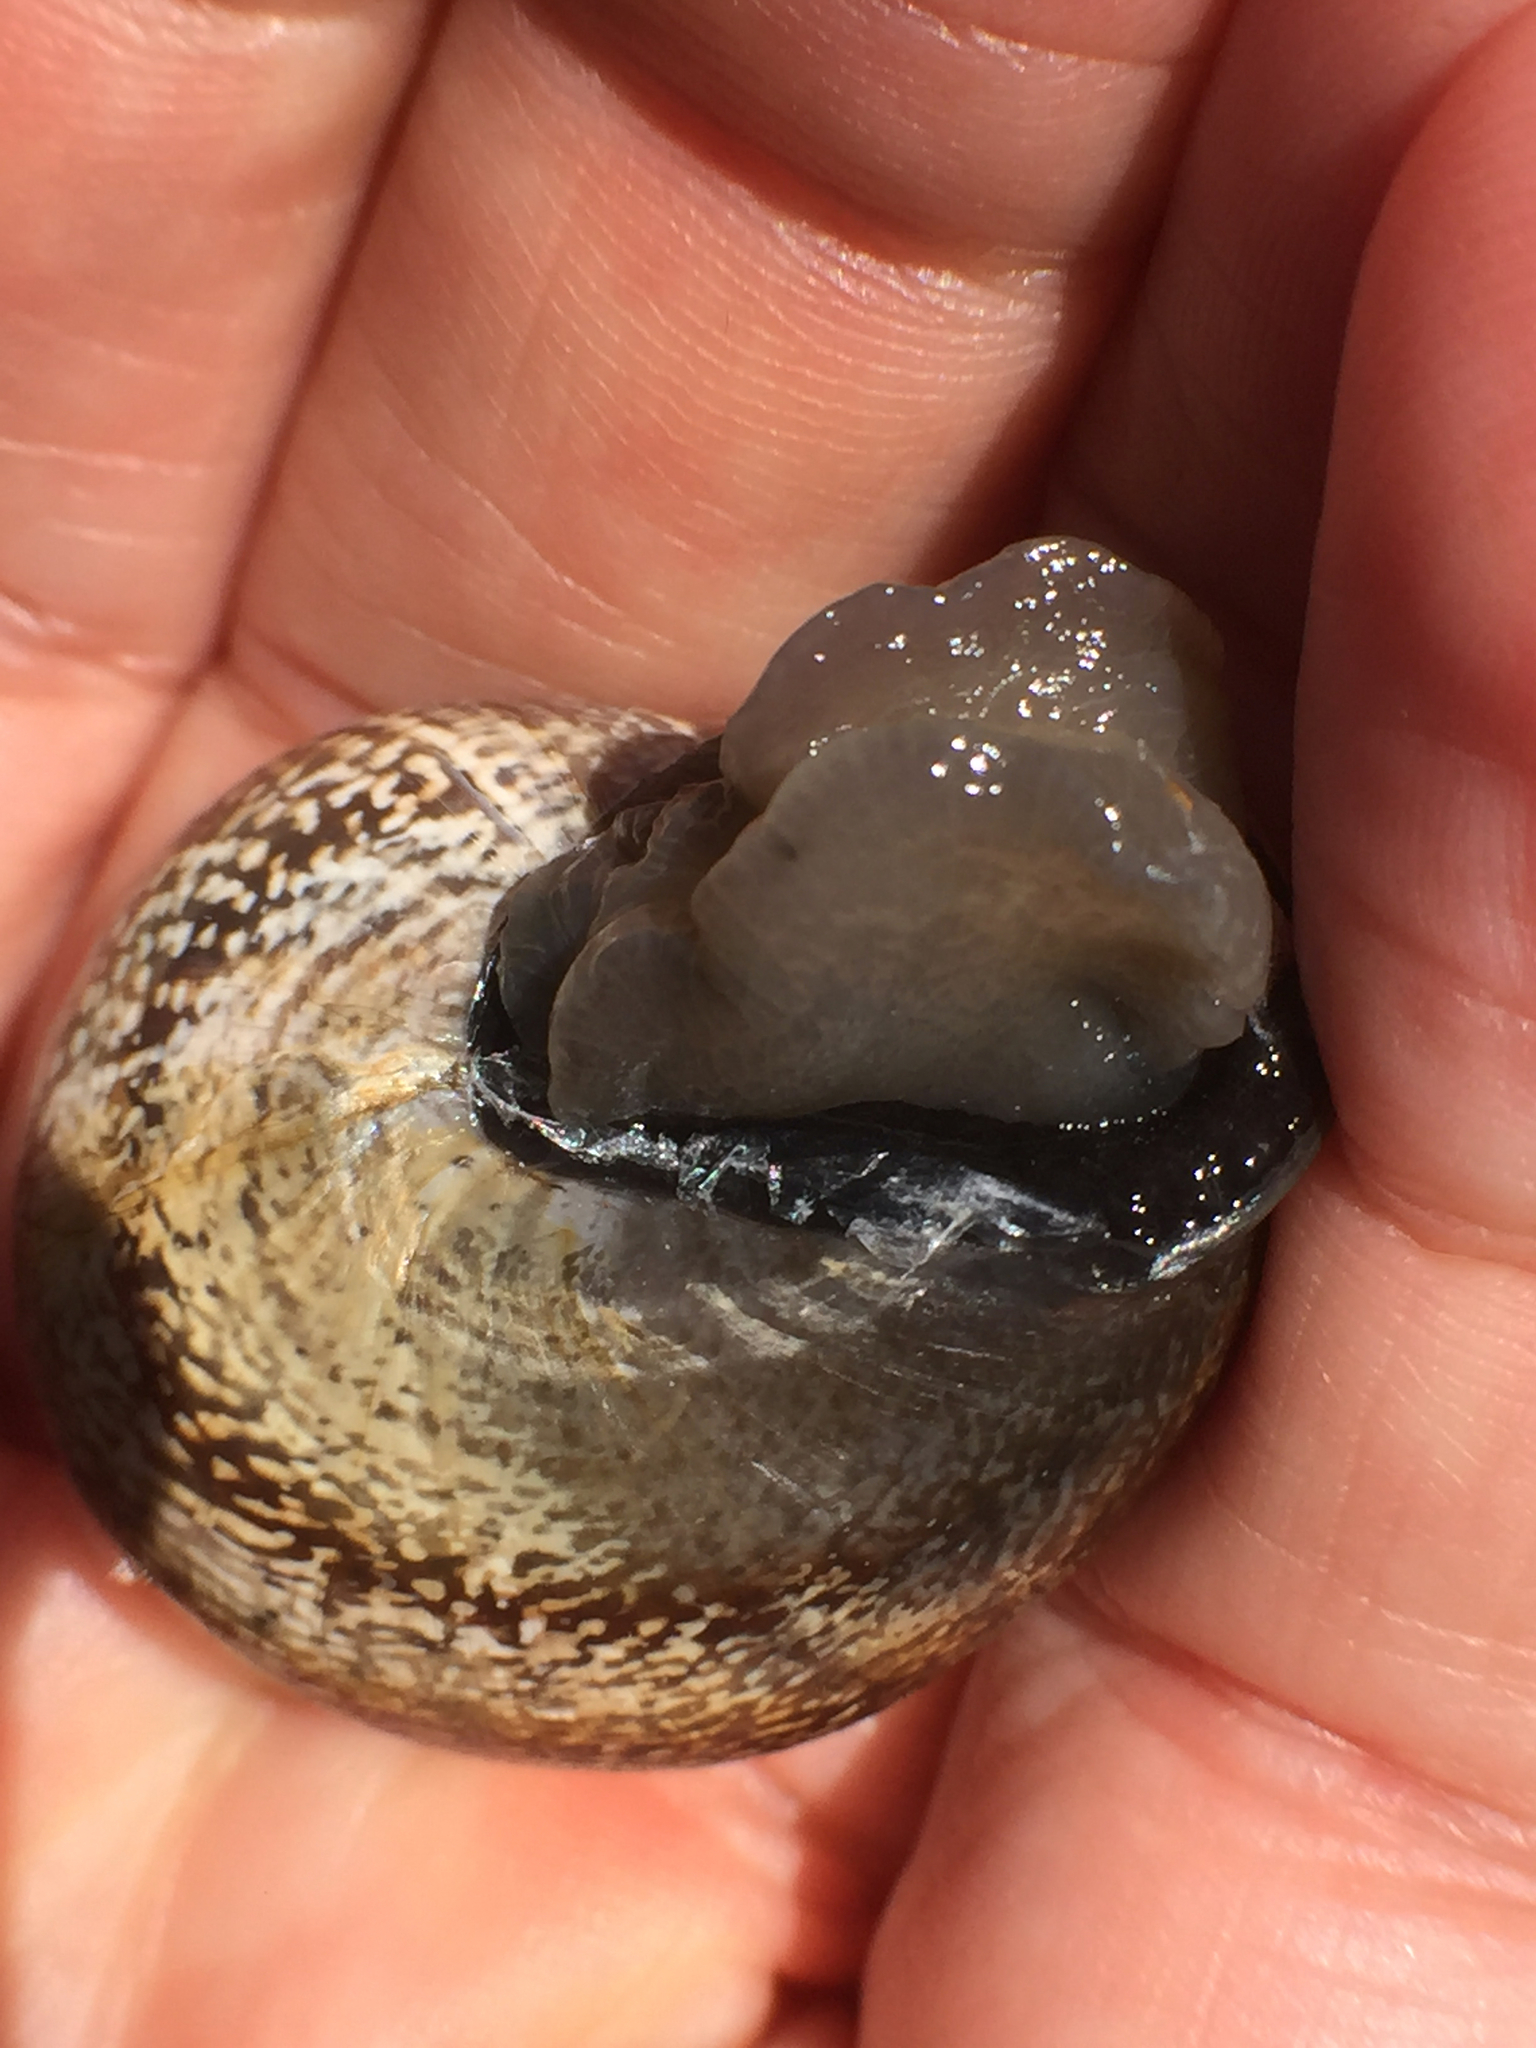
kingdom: Animalia
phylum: Mollusca
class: Gastropoda
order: Stylommatophora
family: Helicidae
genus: Otala
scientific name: Otala lactea
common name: Milk snail
